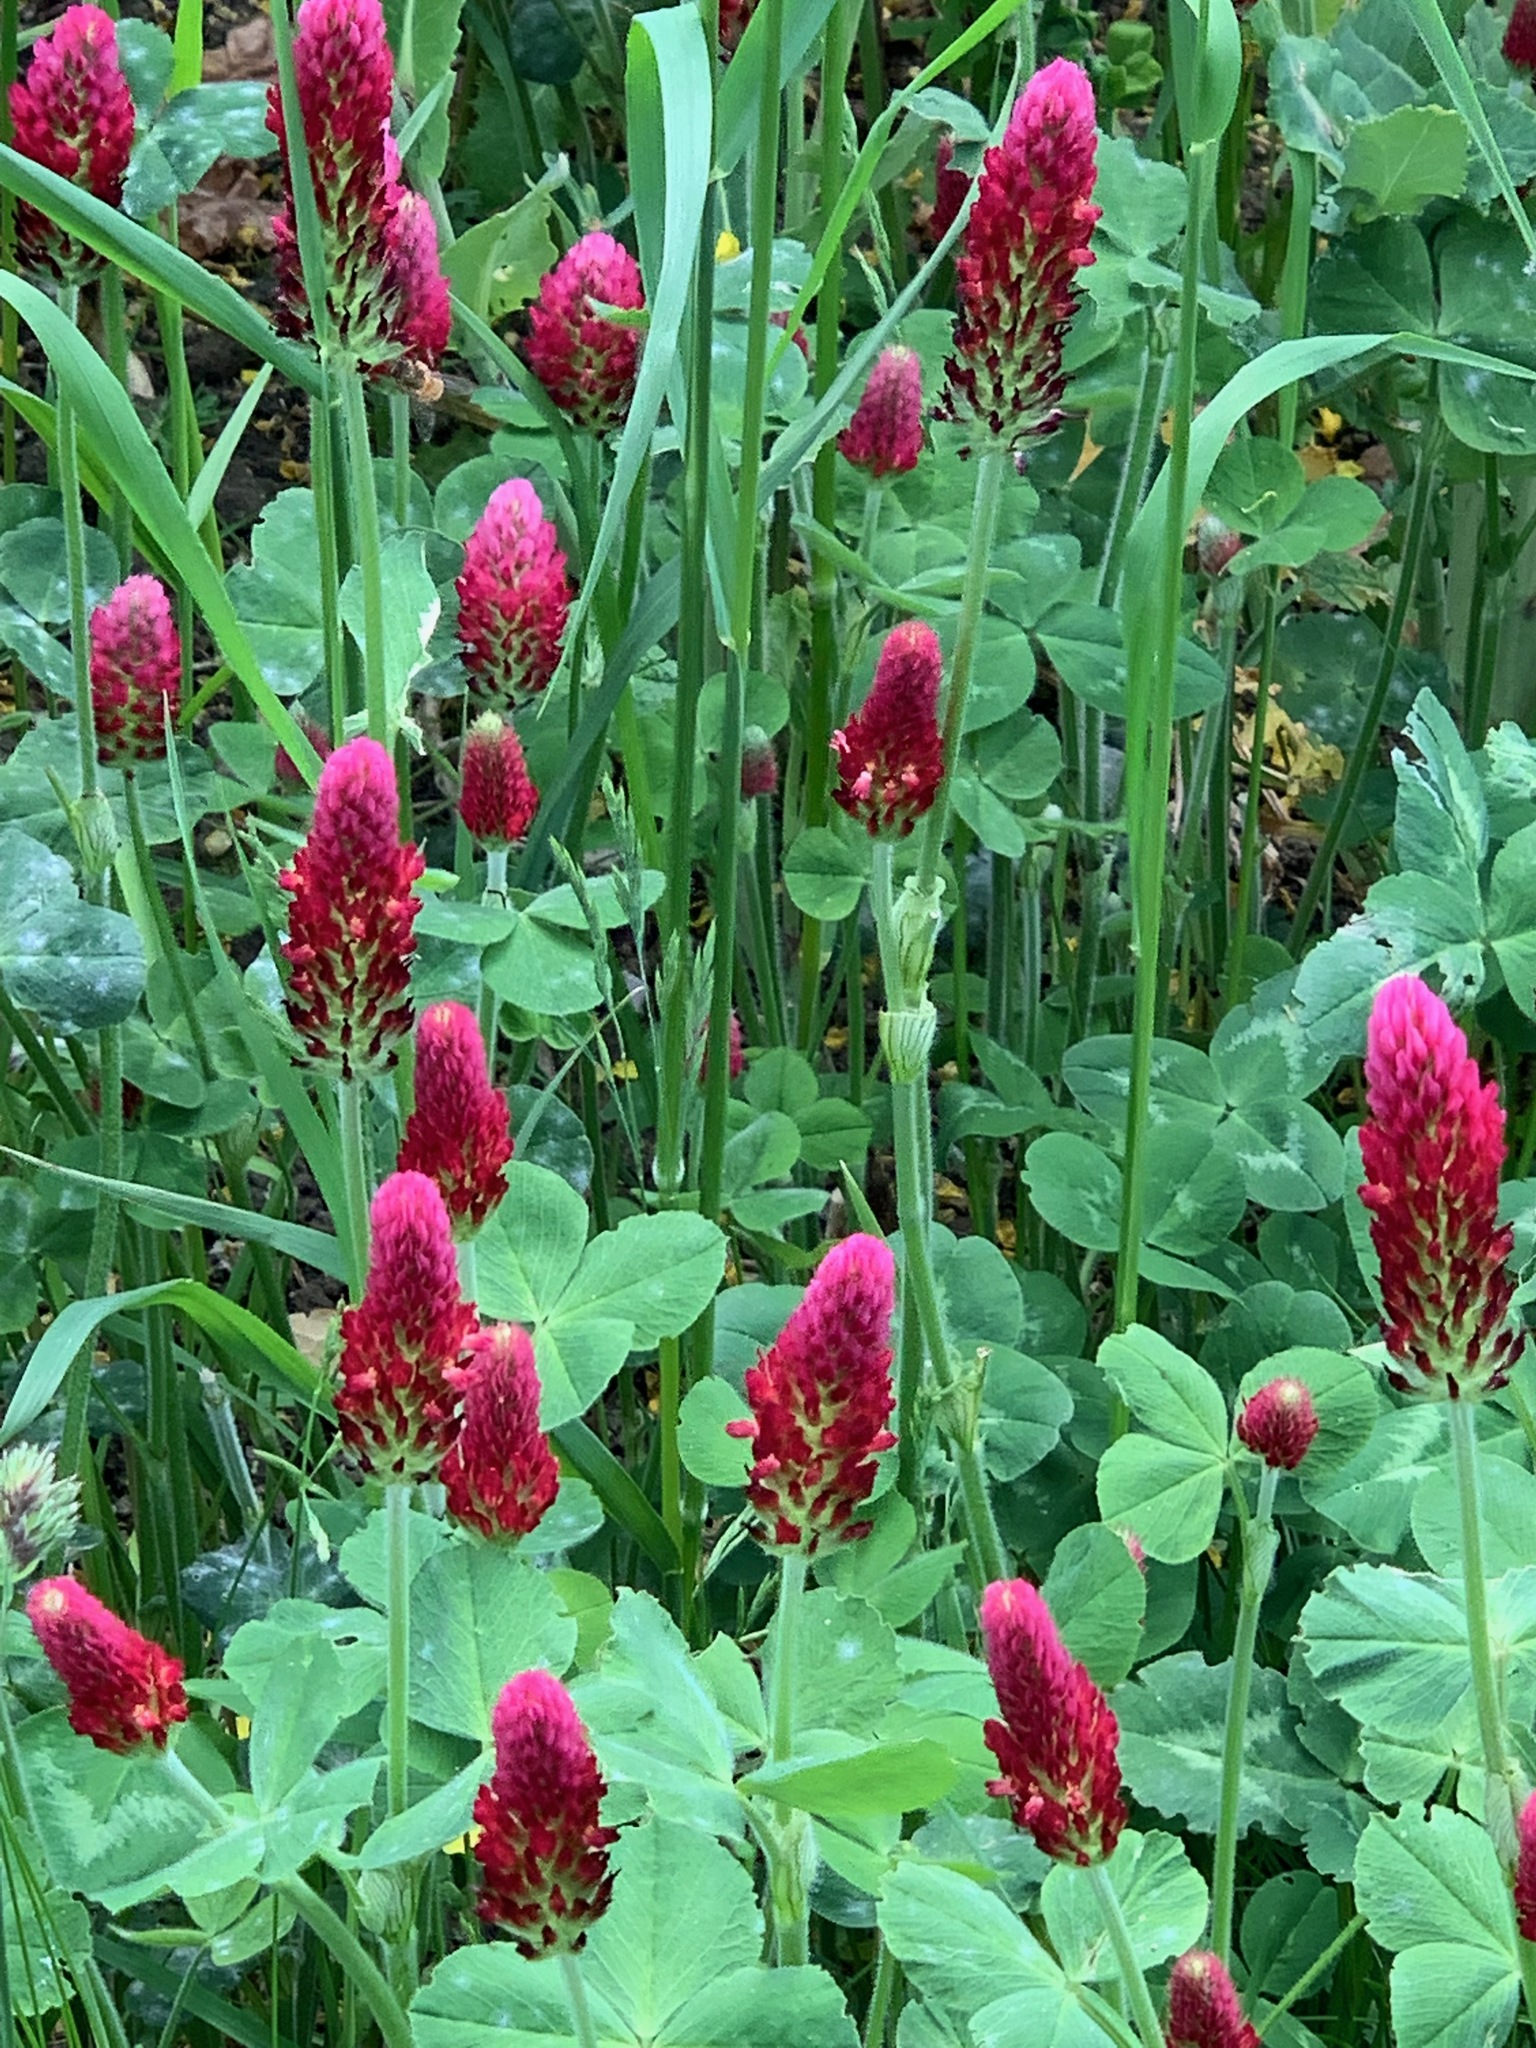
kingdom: Plantae
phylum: Tracheophyta
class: Magnoliopsida
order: Fabales
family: Fabaceae
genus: Trifolium
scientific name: Trifolium incarnatum
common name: Crimson clover
